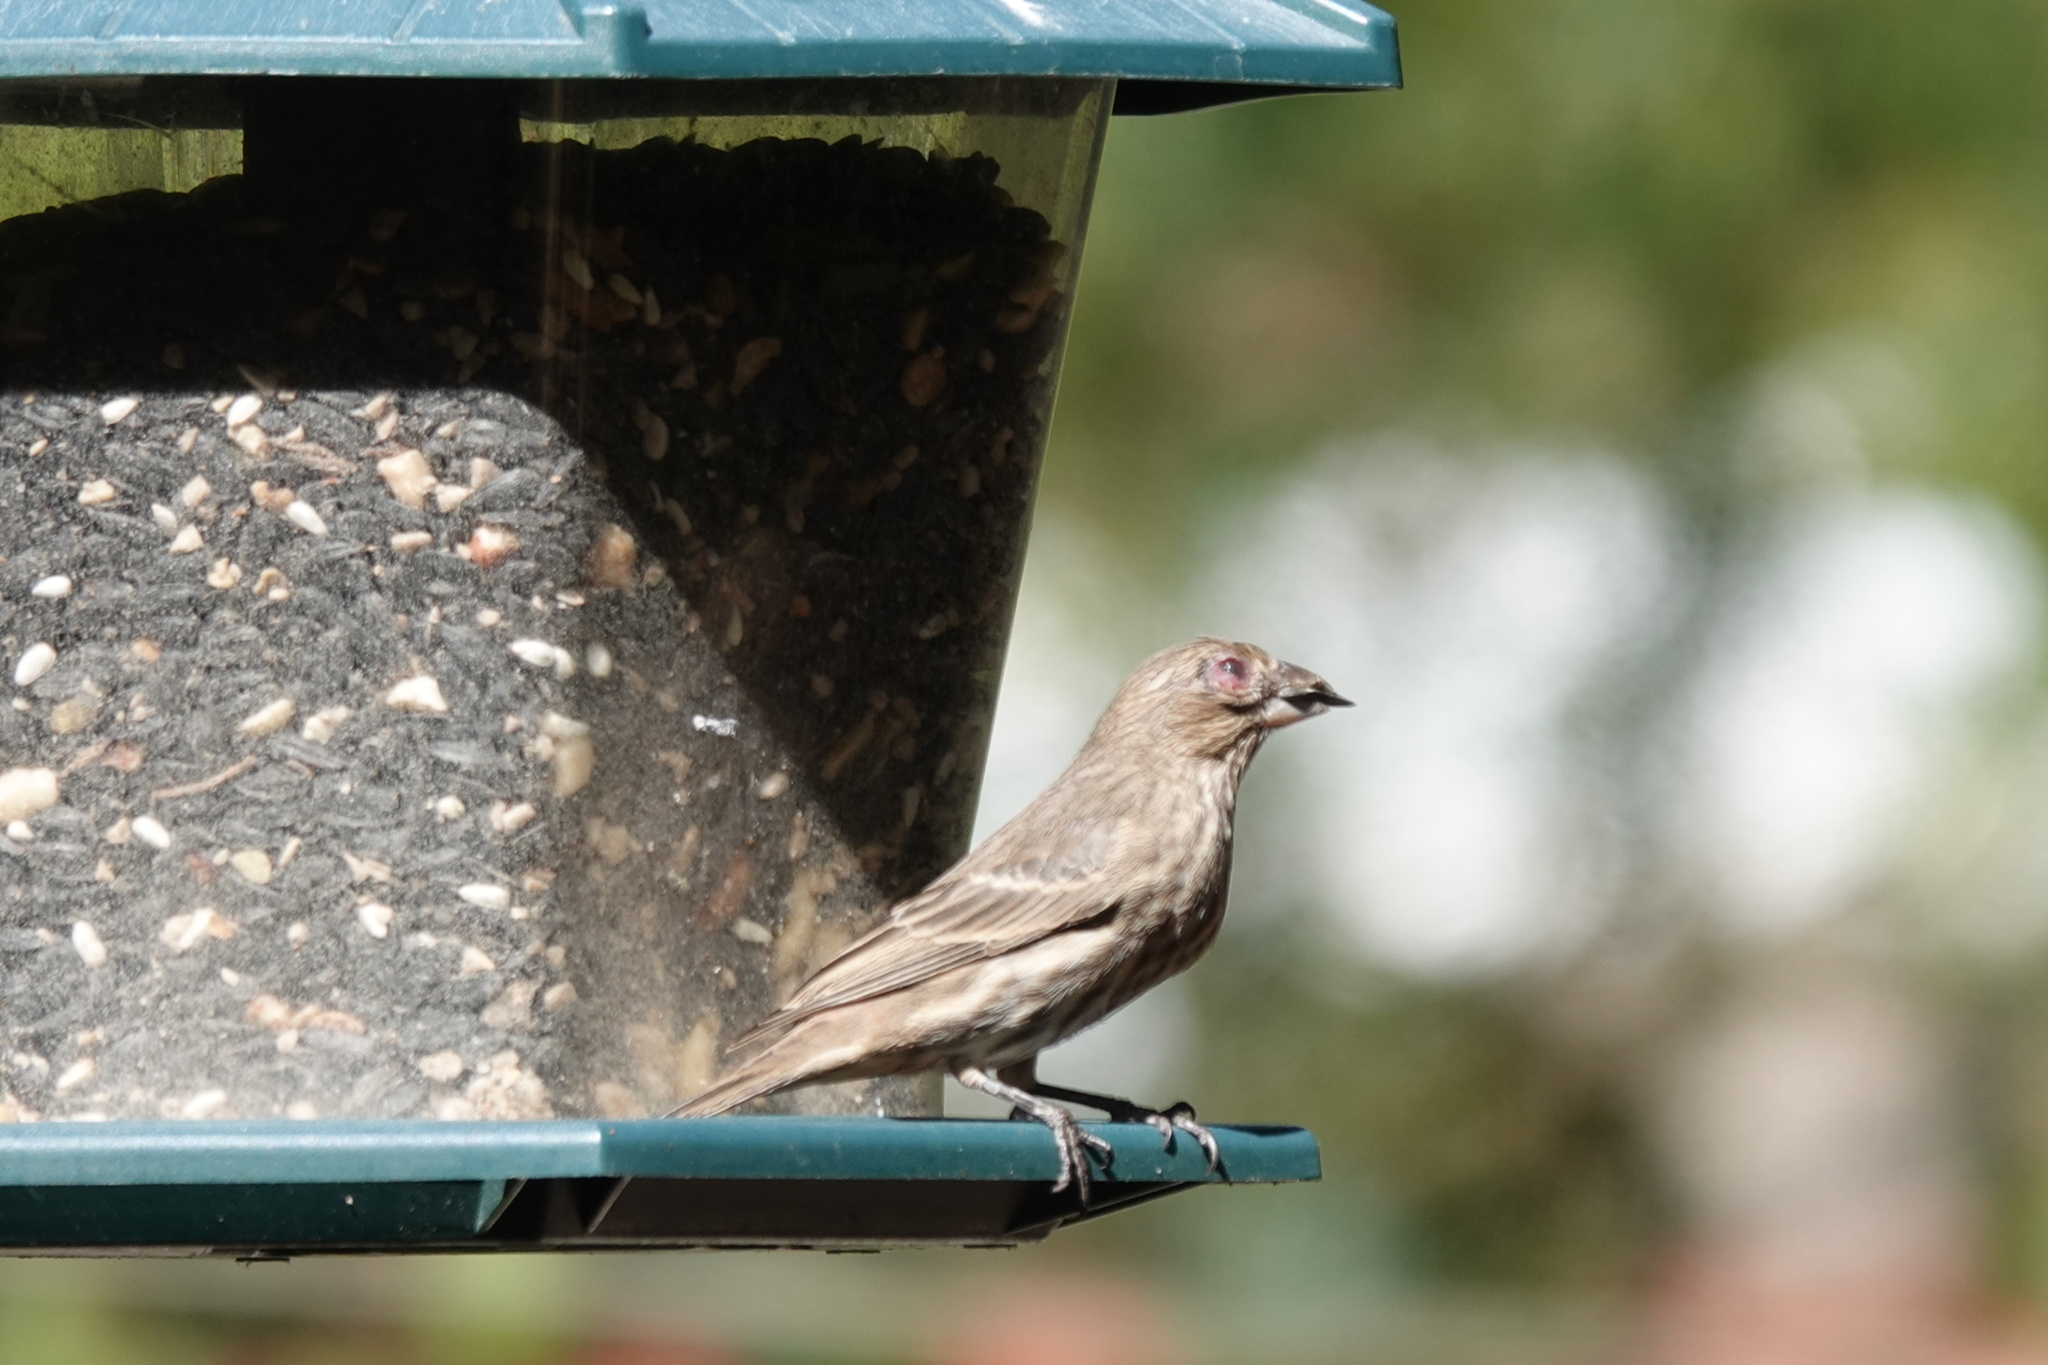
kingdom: Animalia
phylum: Chordata
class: Aves
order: Passeriformes
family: Fringillidae
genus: Haemorhous
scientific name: Haemorhous mexicanus
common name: House finch
